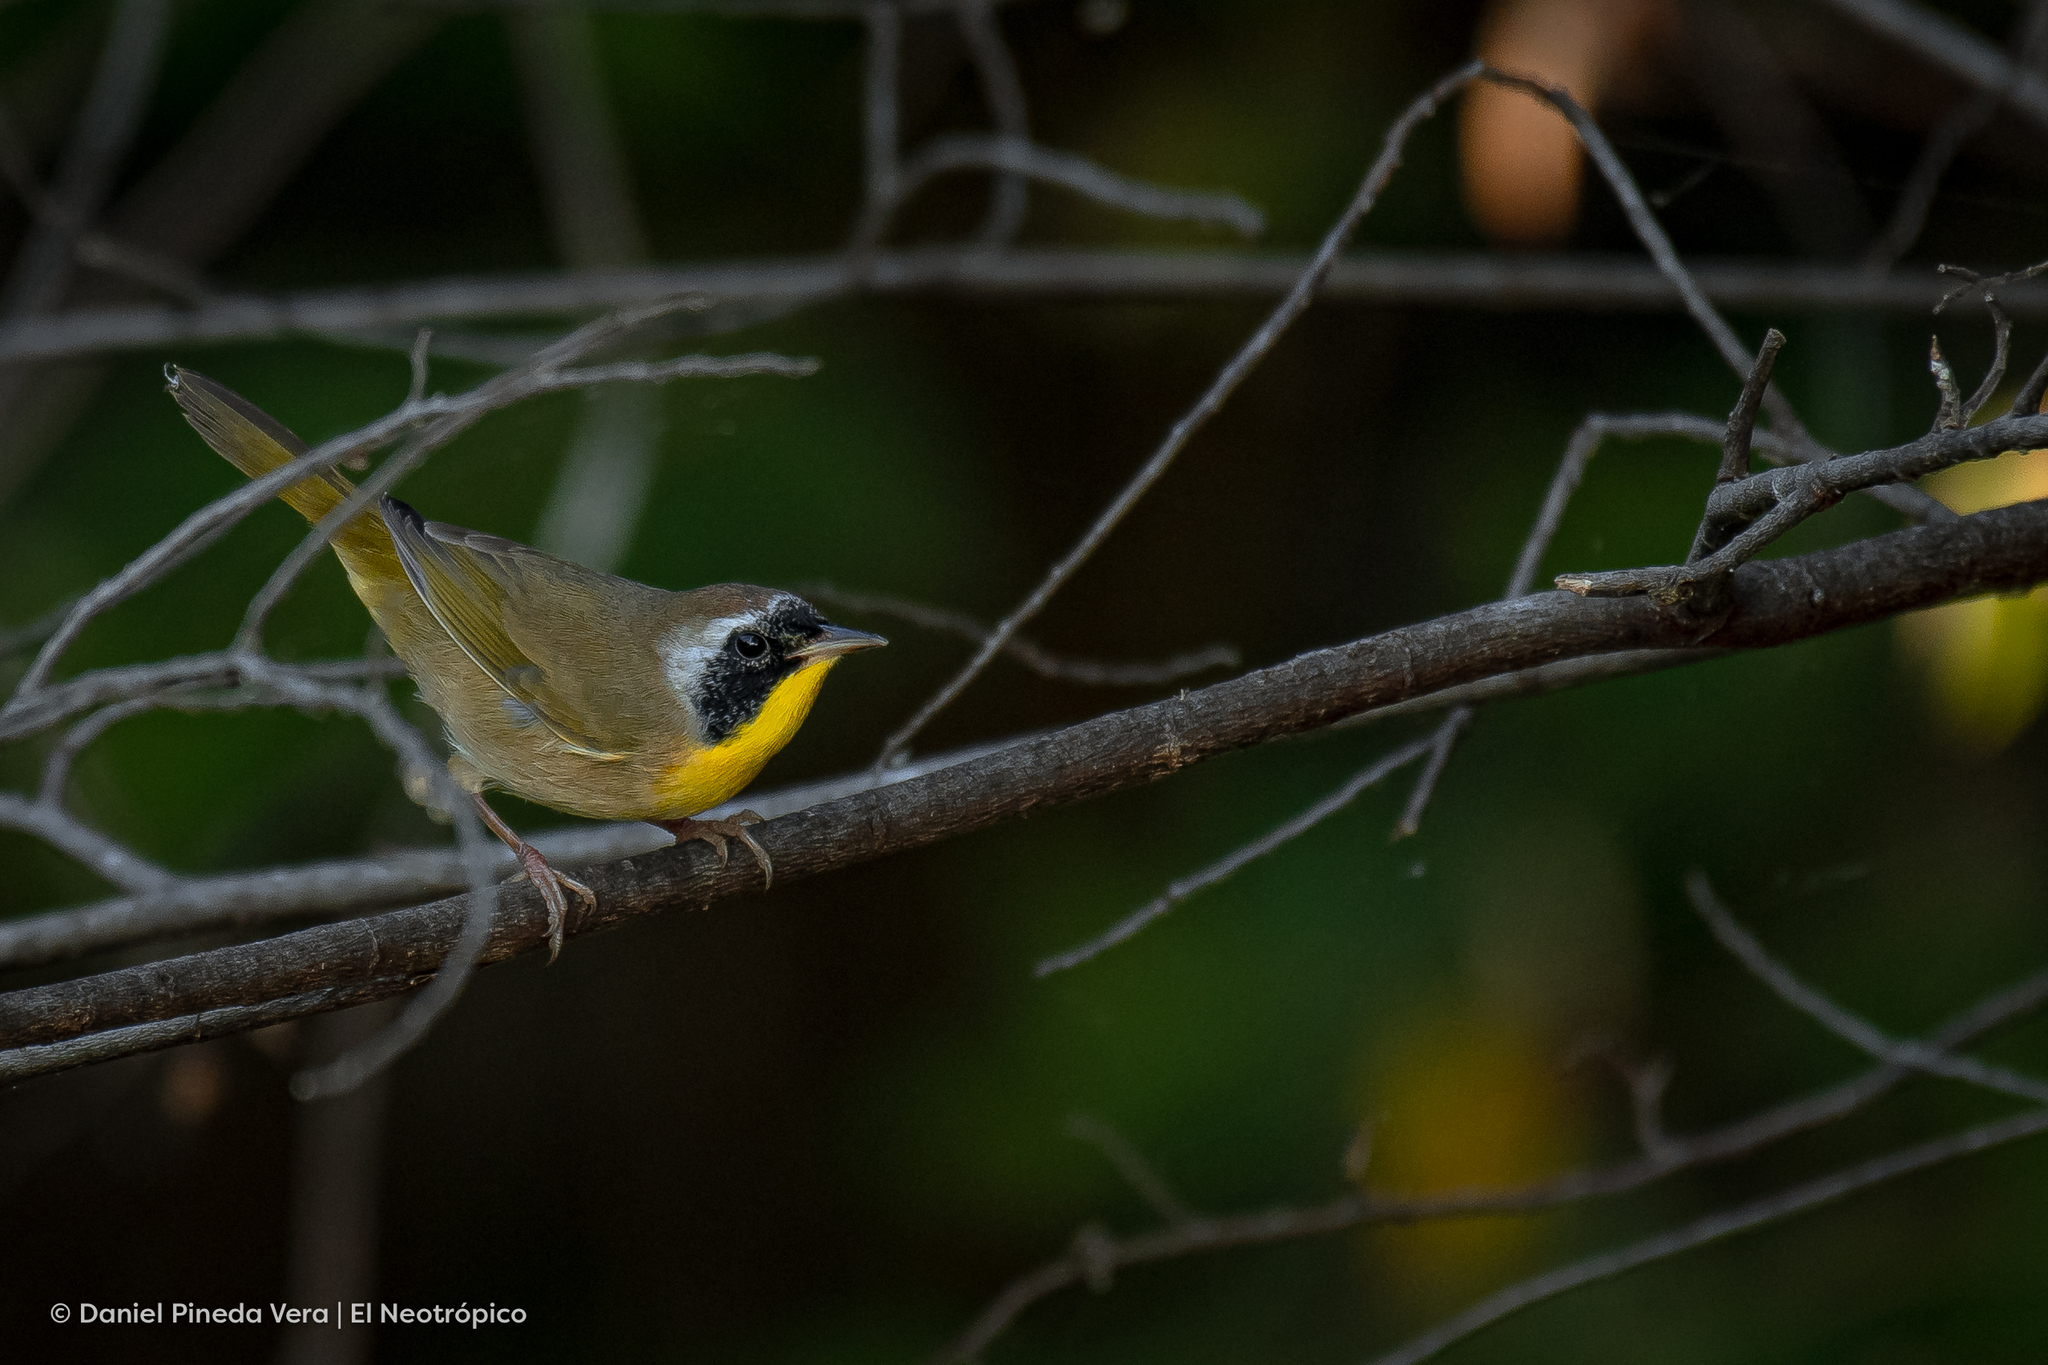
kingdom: Animalia
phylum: Chordata
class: Aves
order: Passeriformes
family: Parulidae
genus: Geothlypis
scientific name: Geothlypis trichas
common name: Common yellowthroat
